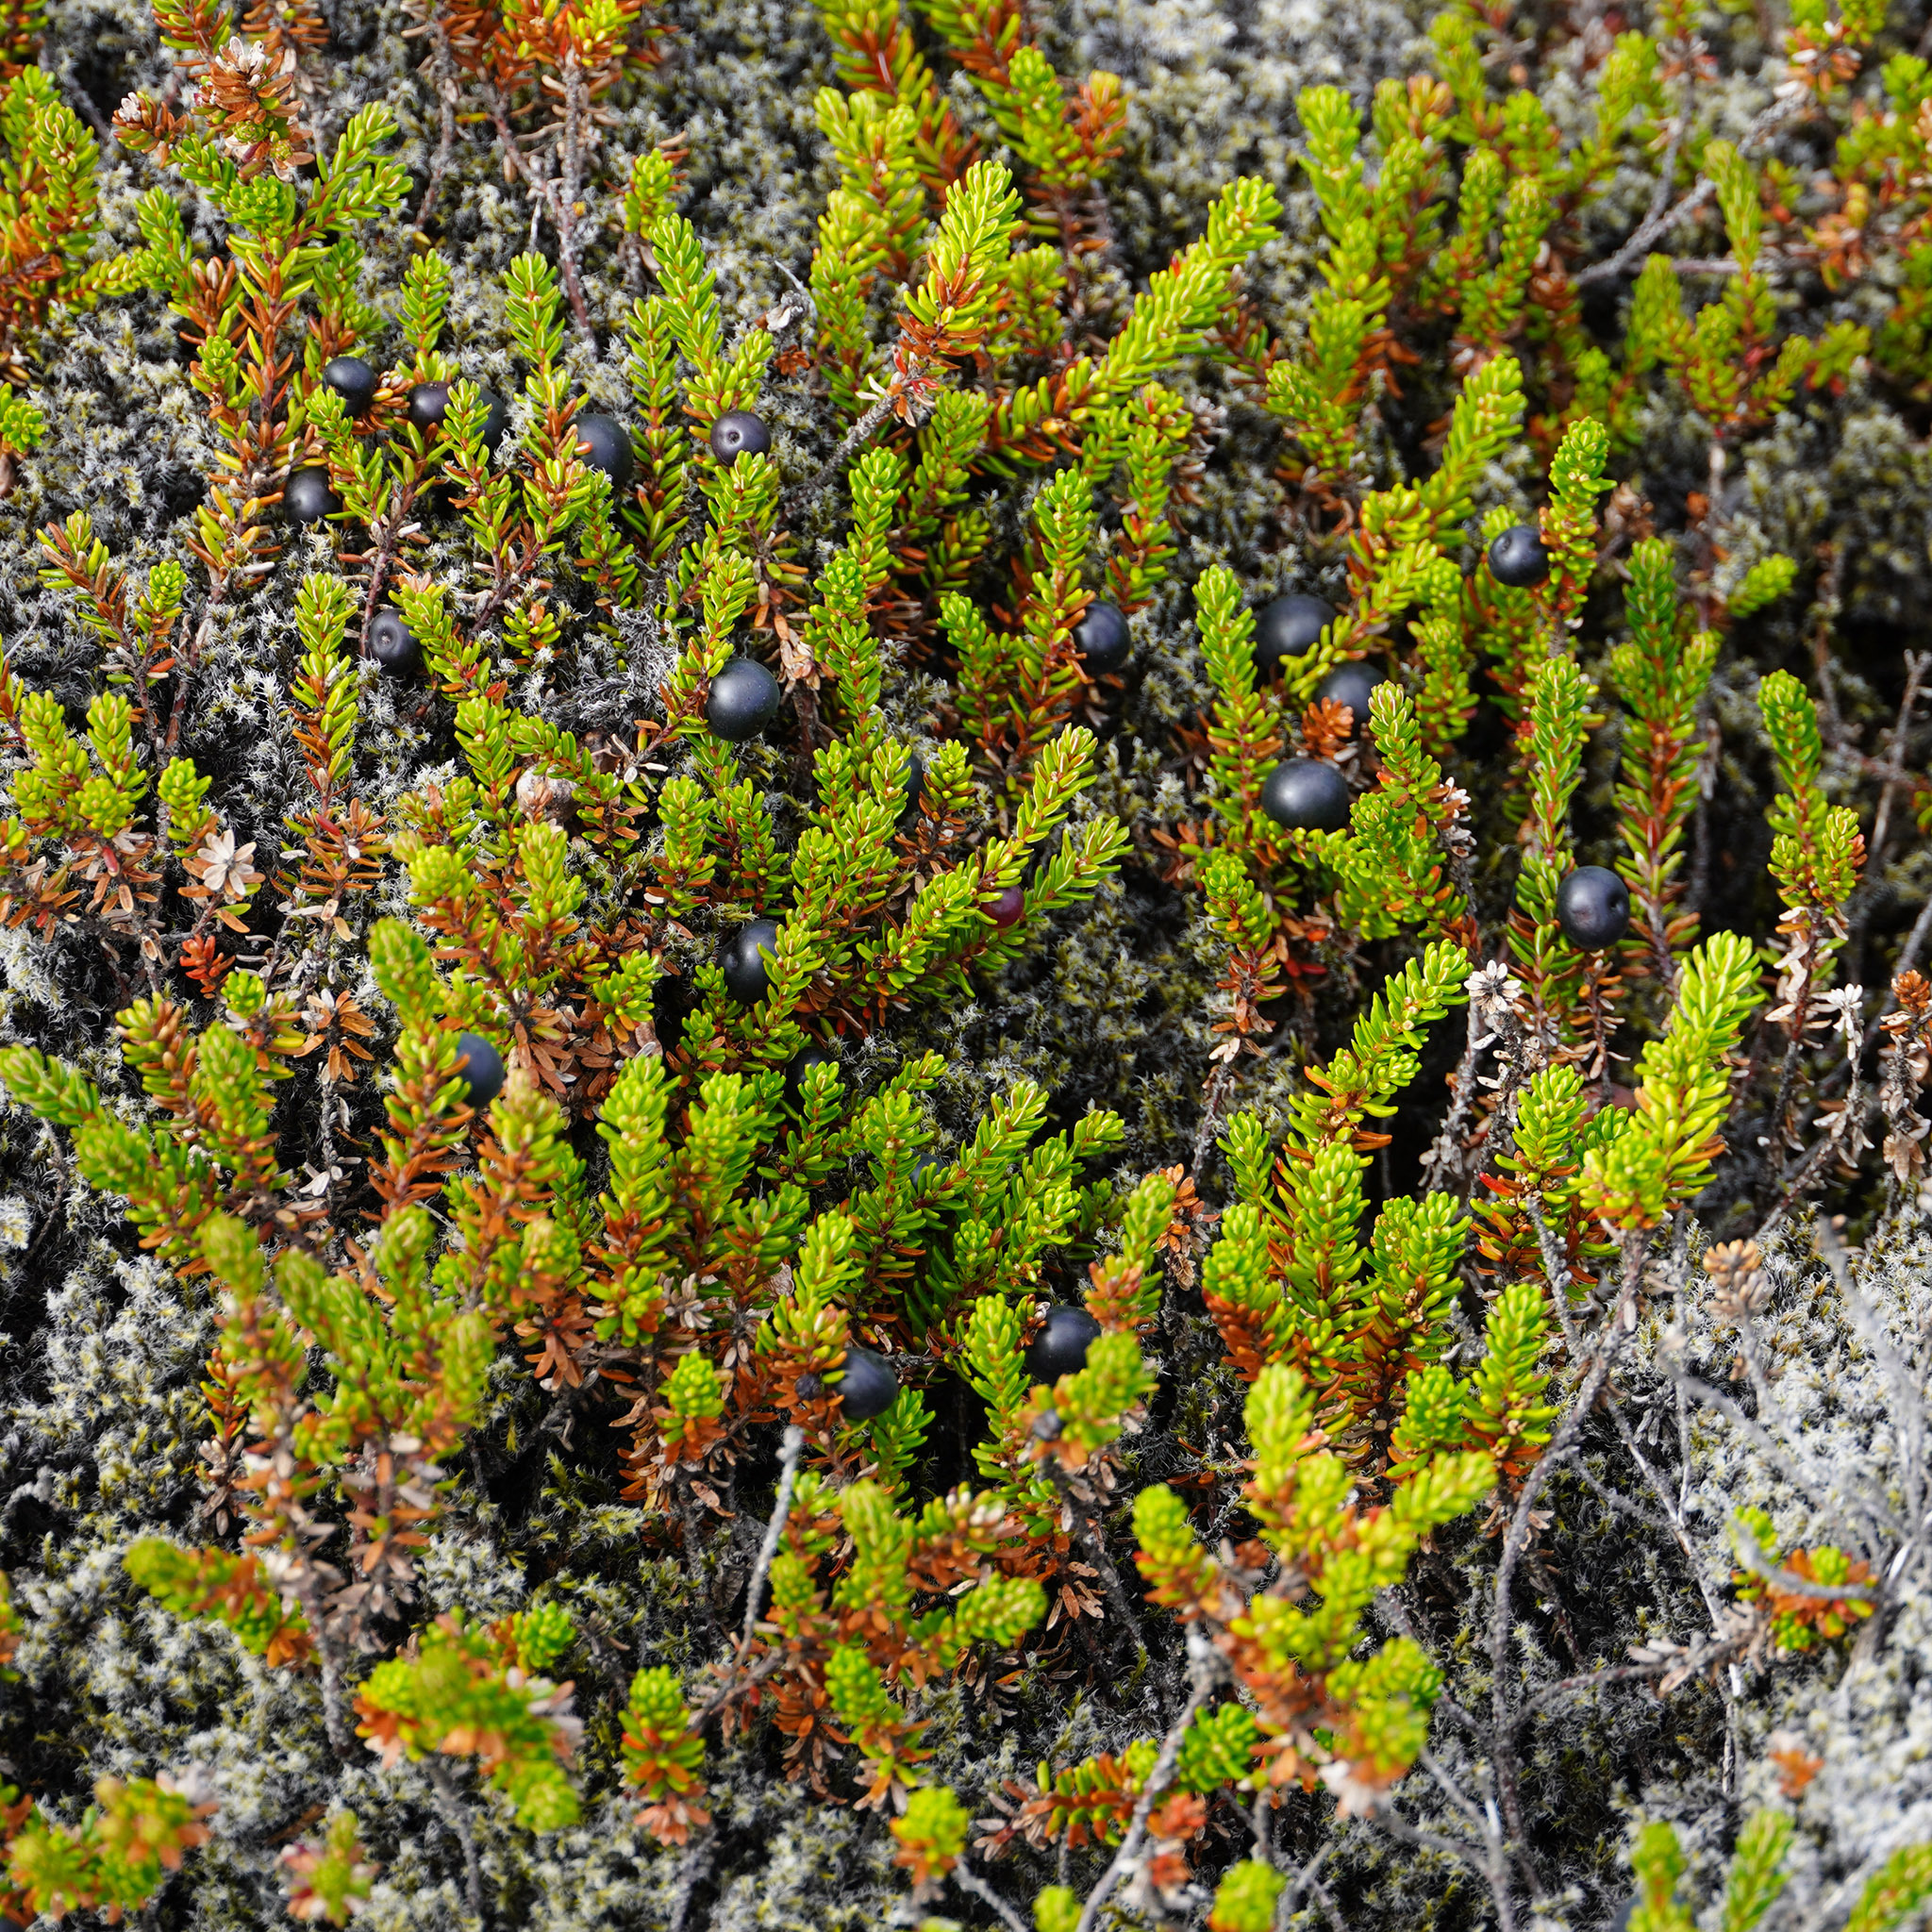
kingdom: Plantae
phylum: Tracheophyta
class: Magnoliopsida
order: Ericales
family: Ericaceae
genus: Empetrum
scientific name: Empetrum nigrum
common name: Black crowberry
